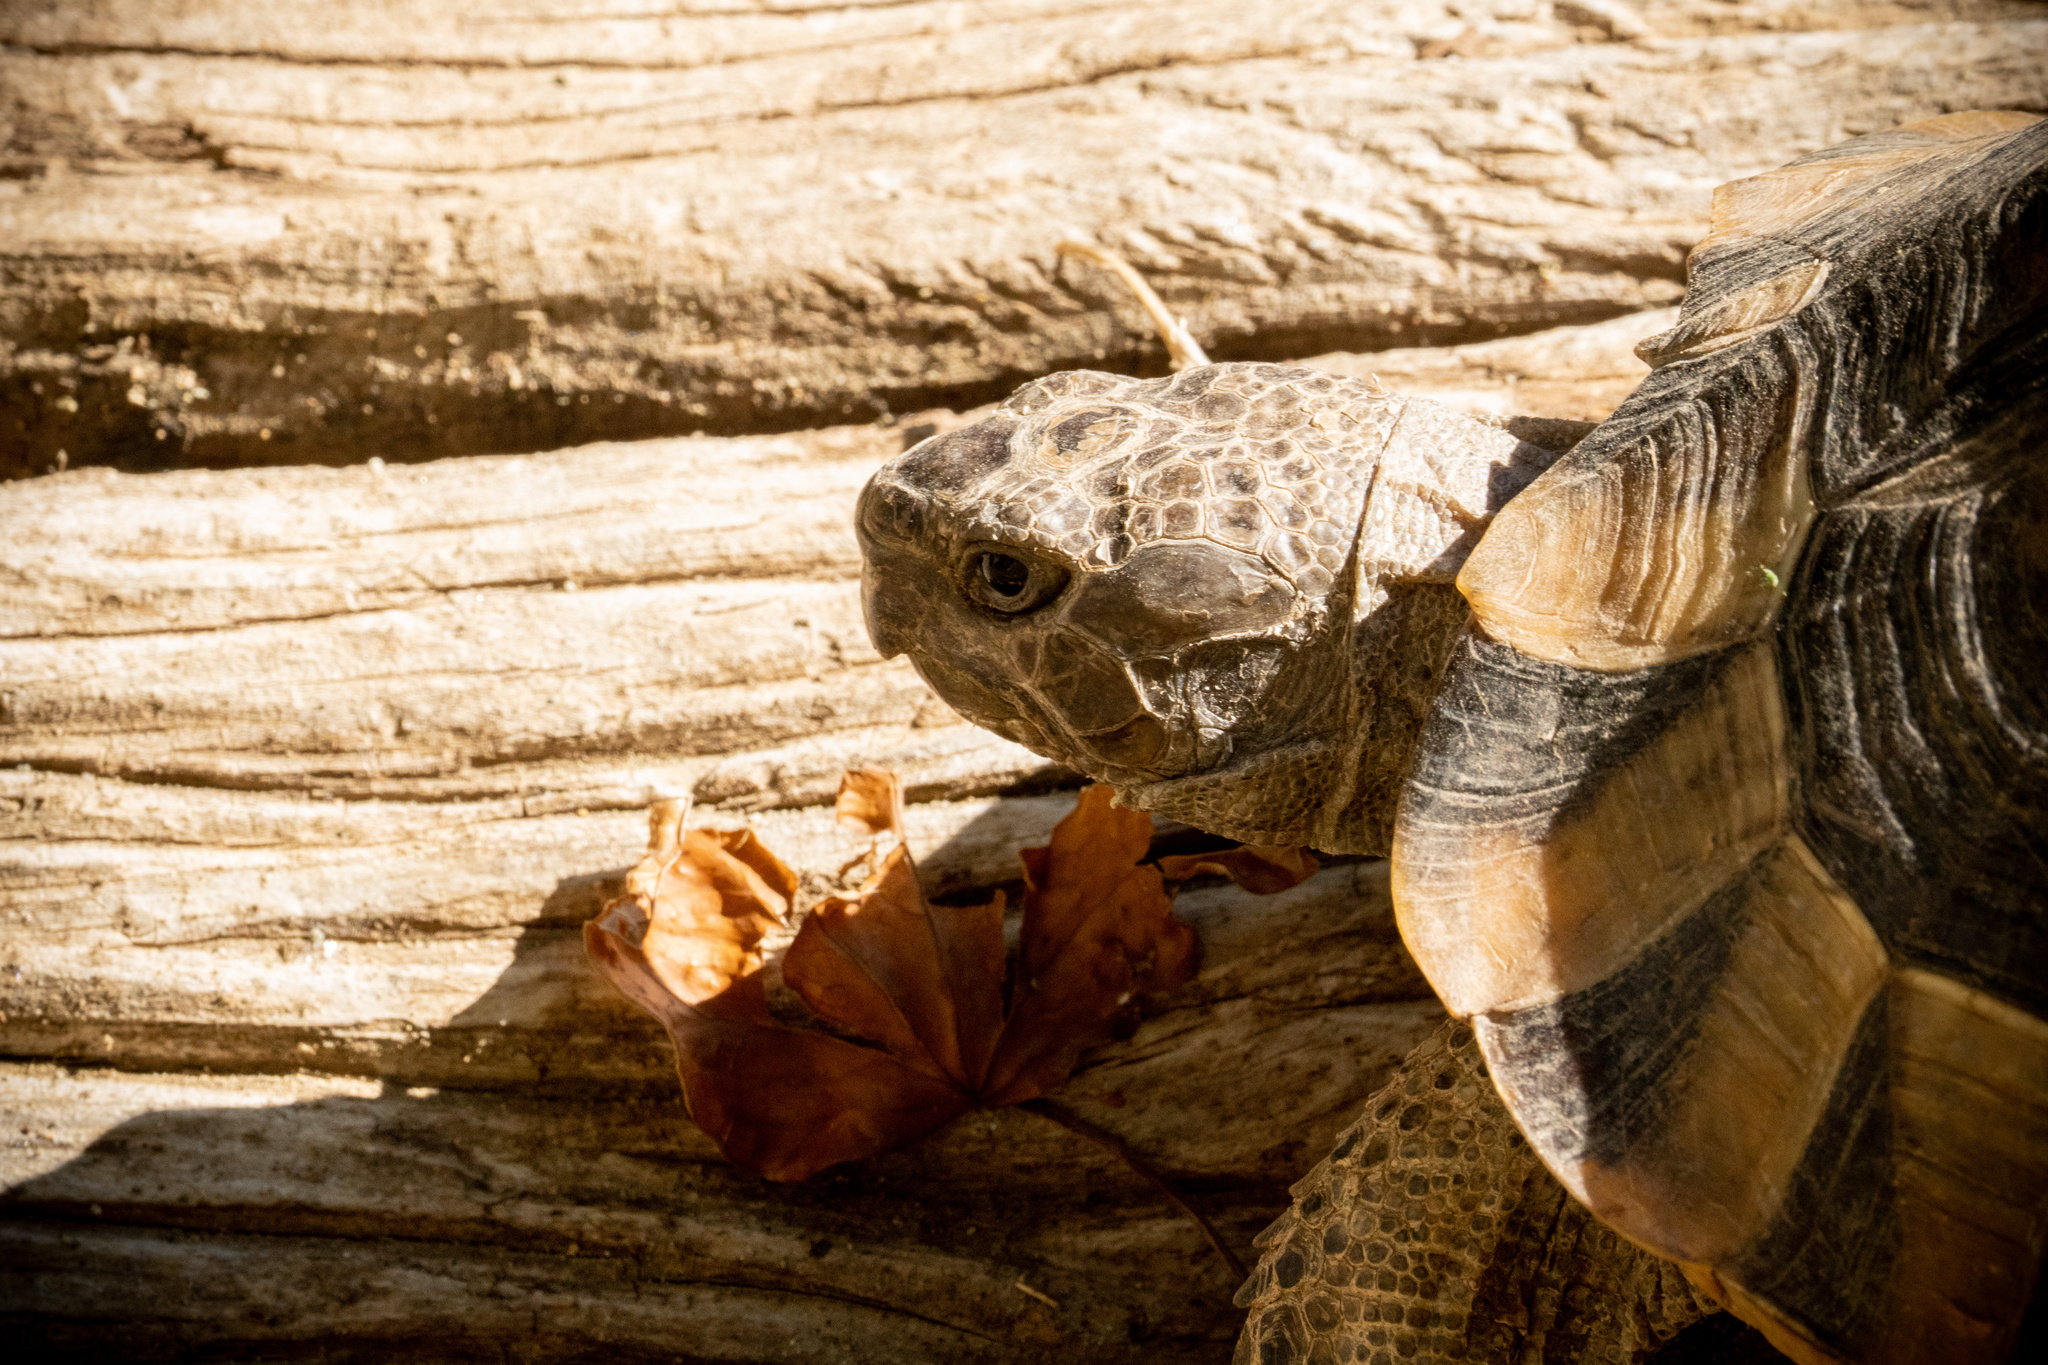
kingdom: Animalia
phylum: Chordata
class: Testudines
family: Testudinidae
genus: Testudo
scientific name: Testudo graeca
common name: Common tortoise
